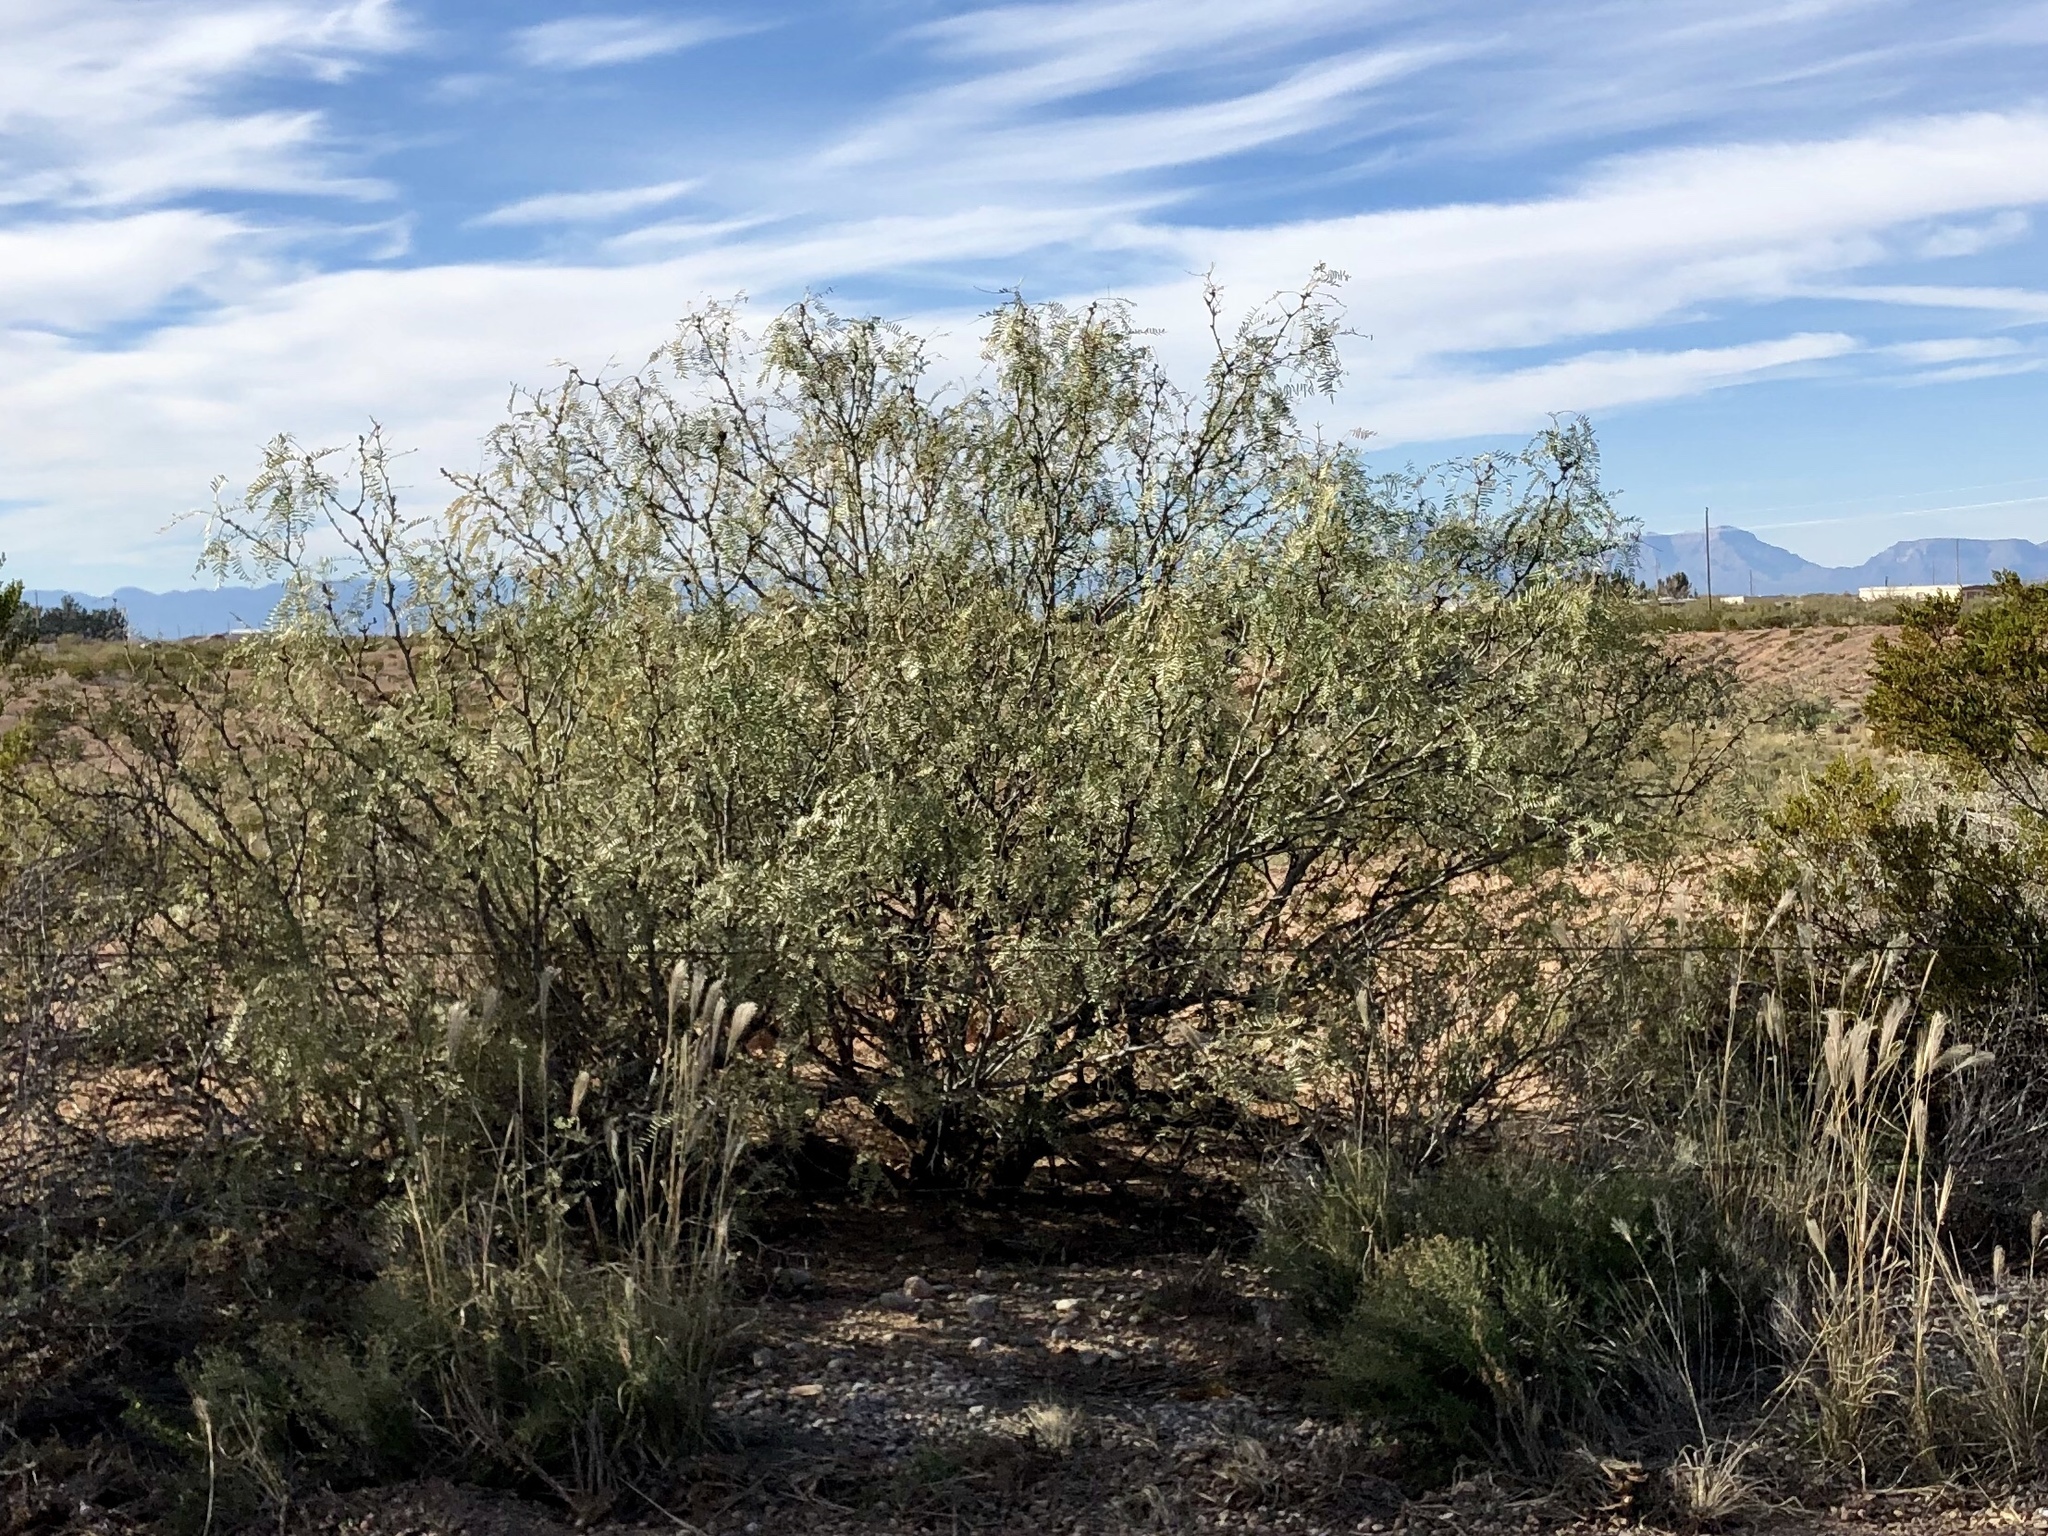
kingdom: Plantae
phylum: Tracheophyta
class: Magnoliopsida
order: Fabales
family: Fabaceae
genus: Prosopis
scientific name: Prosopis glandulosa
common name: Honey mesquite
